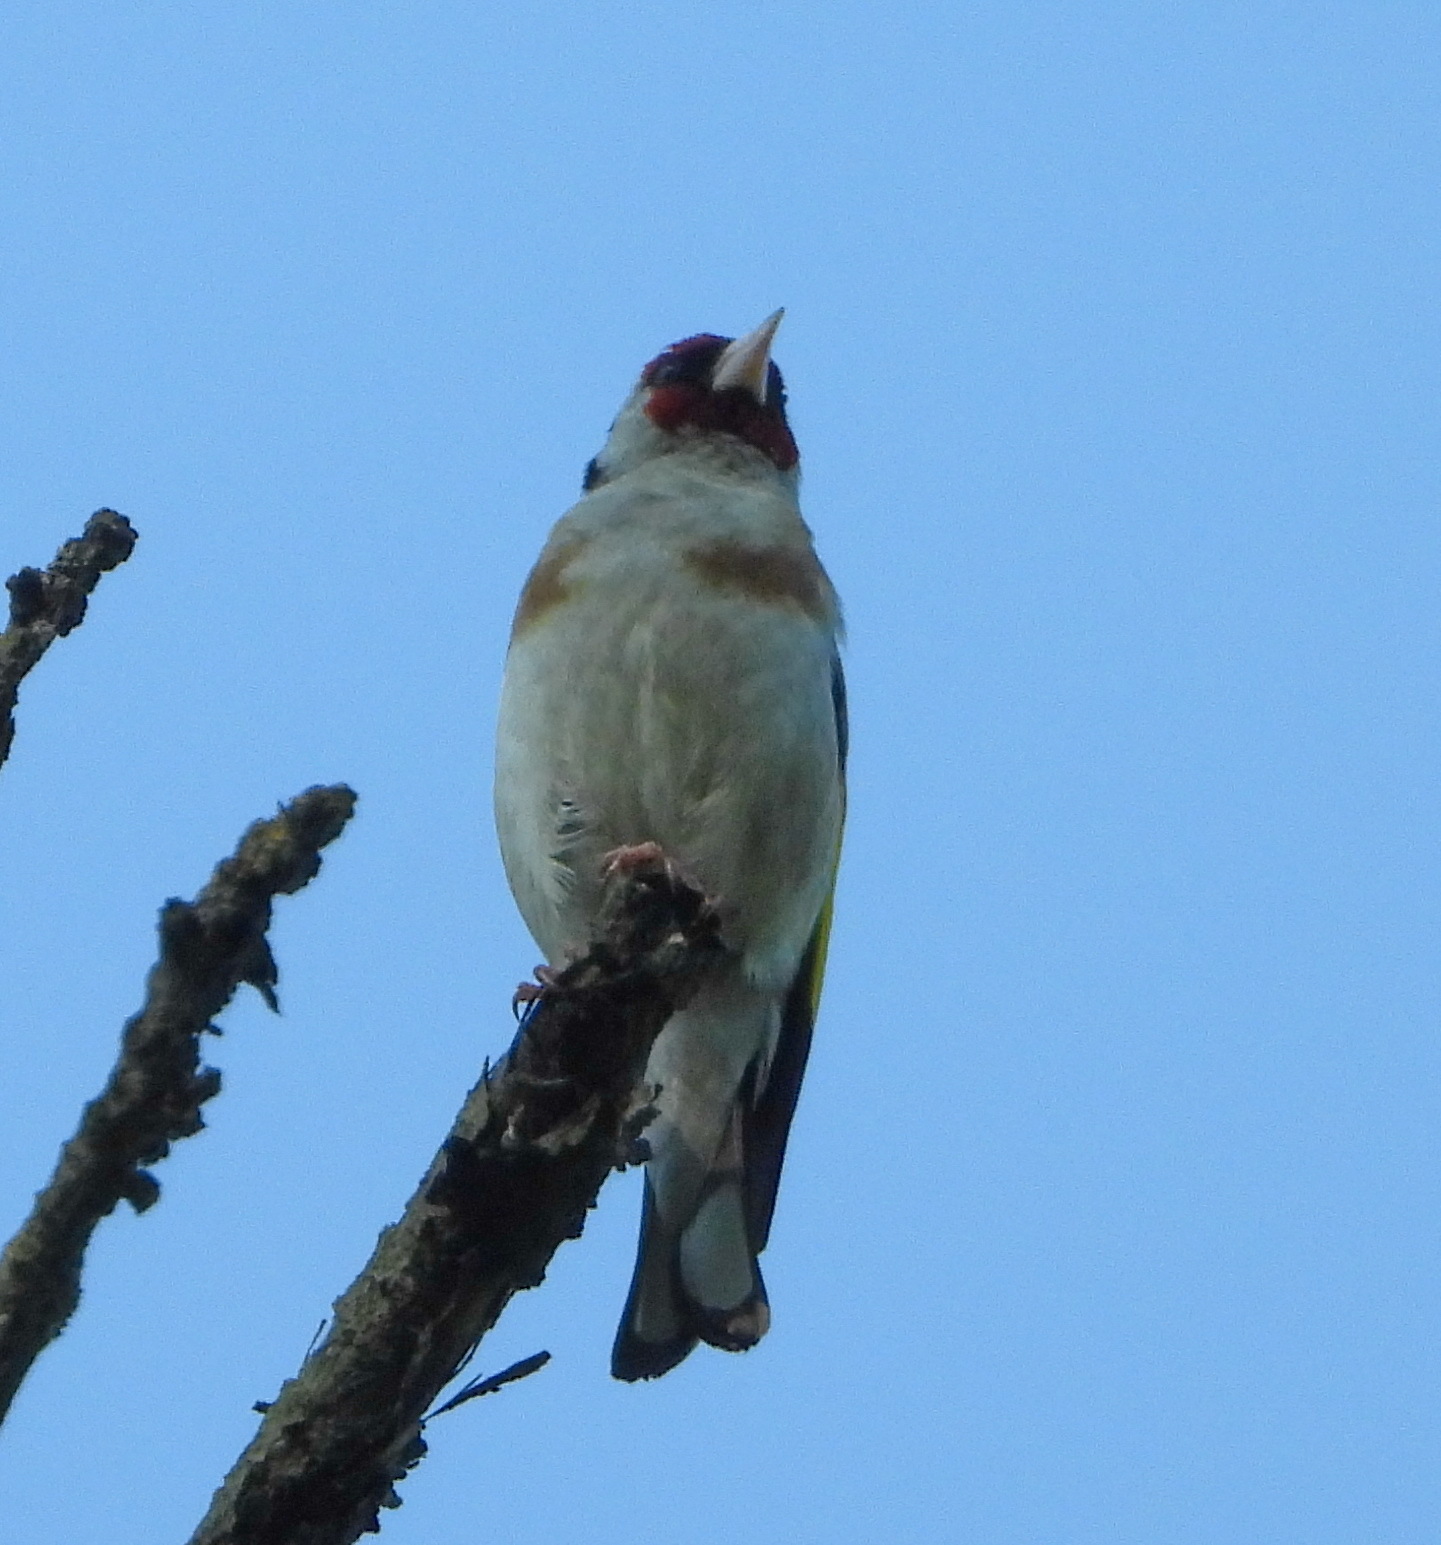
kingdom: Animalia
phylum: Chordata
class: Aves
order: Passeriformes
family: Fringillidae
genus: Carduelis
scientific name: Carduelis carduelis
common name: European goldfinch
